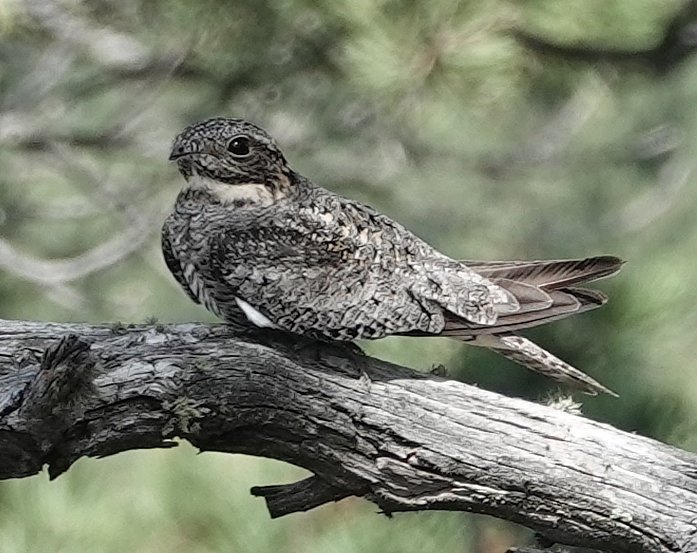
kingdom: Animalia
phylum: Chordata
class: Aves
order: Caprimulgiformes
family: Caprimulgidae
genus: Chordeiles
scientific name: Chordeiles minor
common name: Common nighthawk
